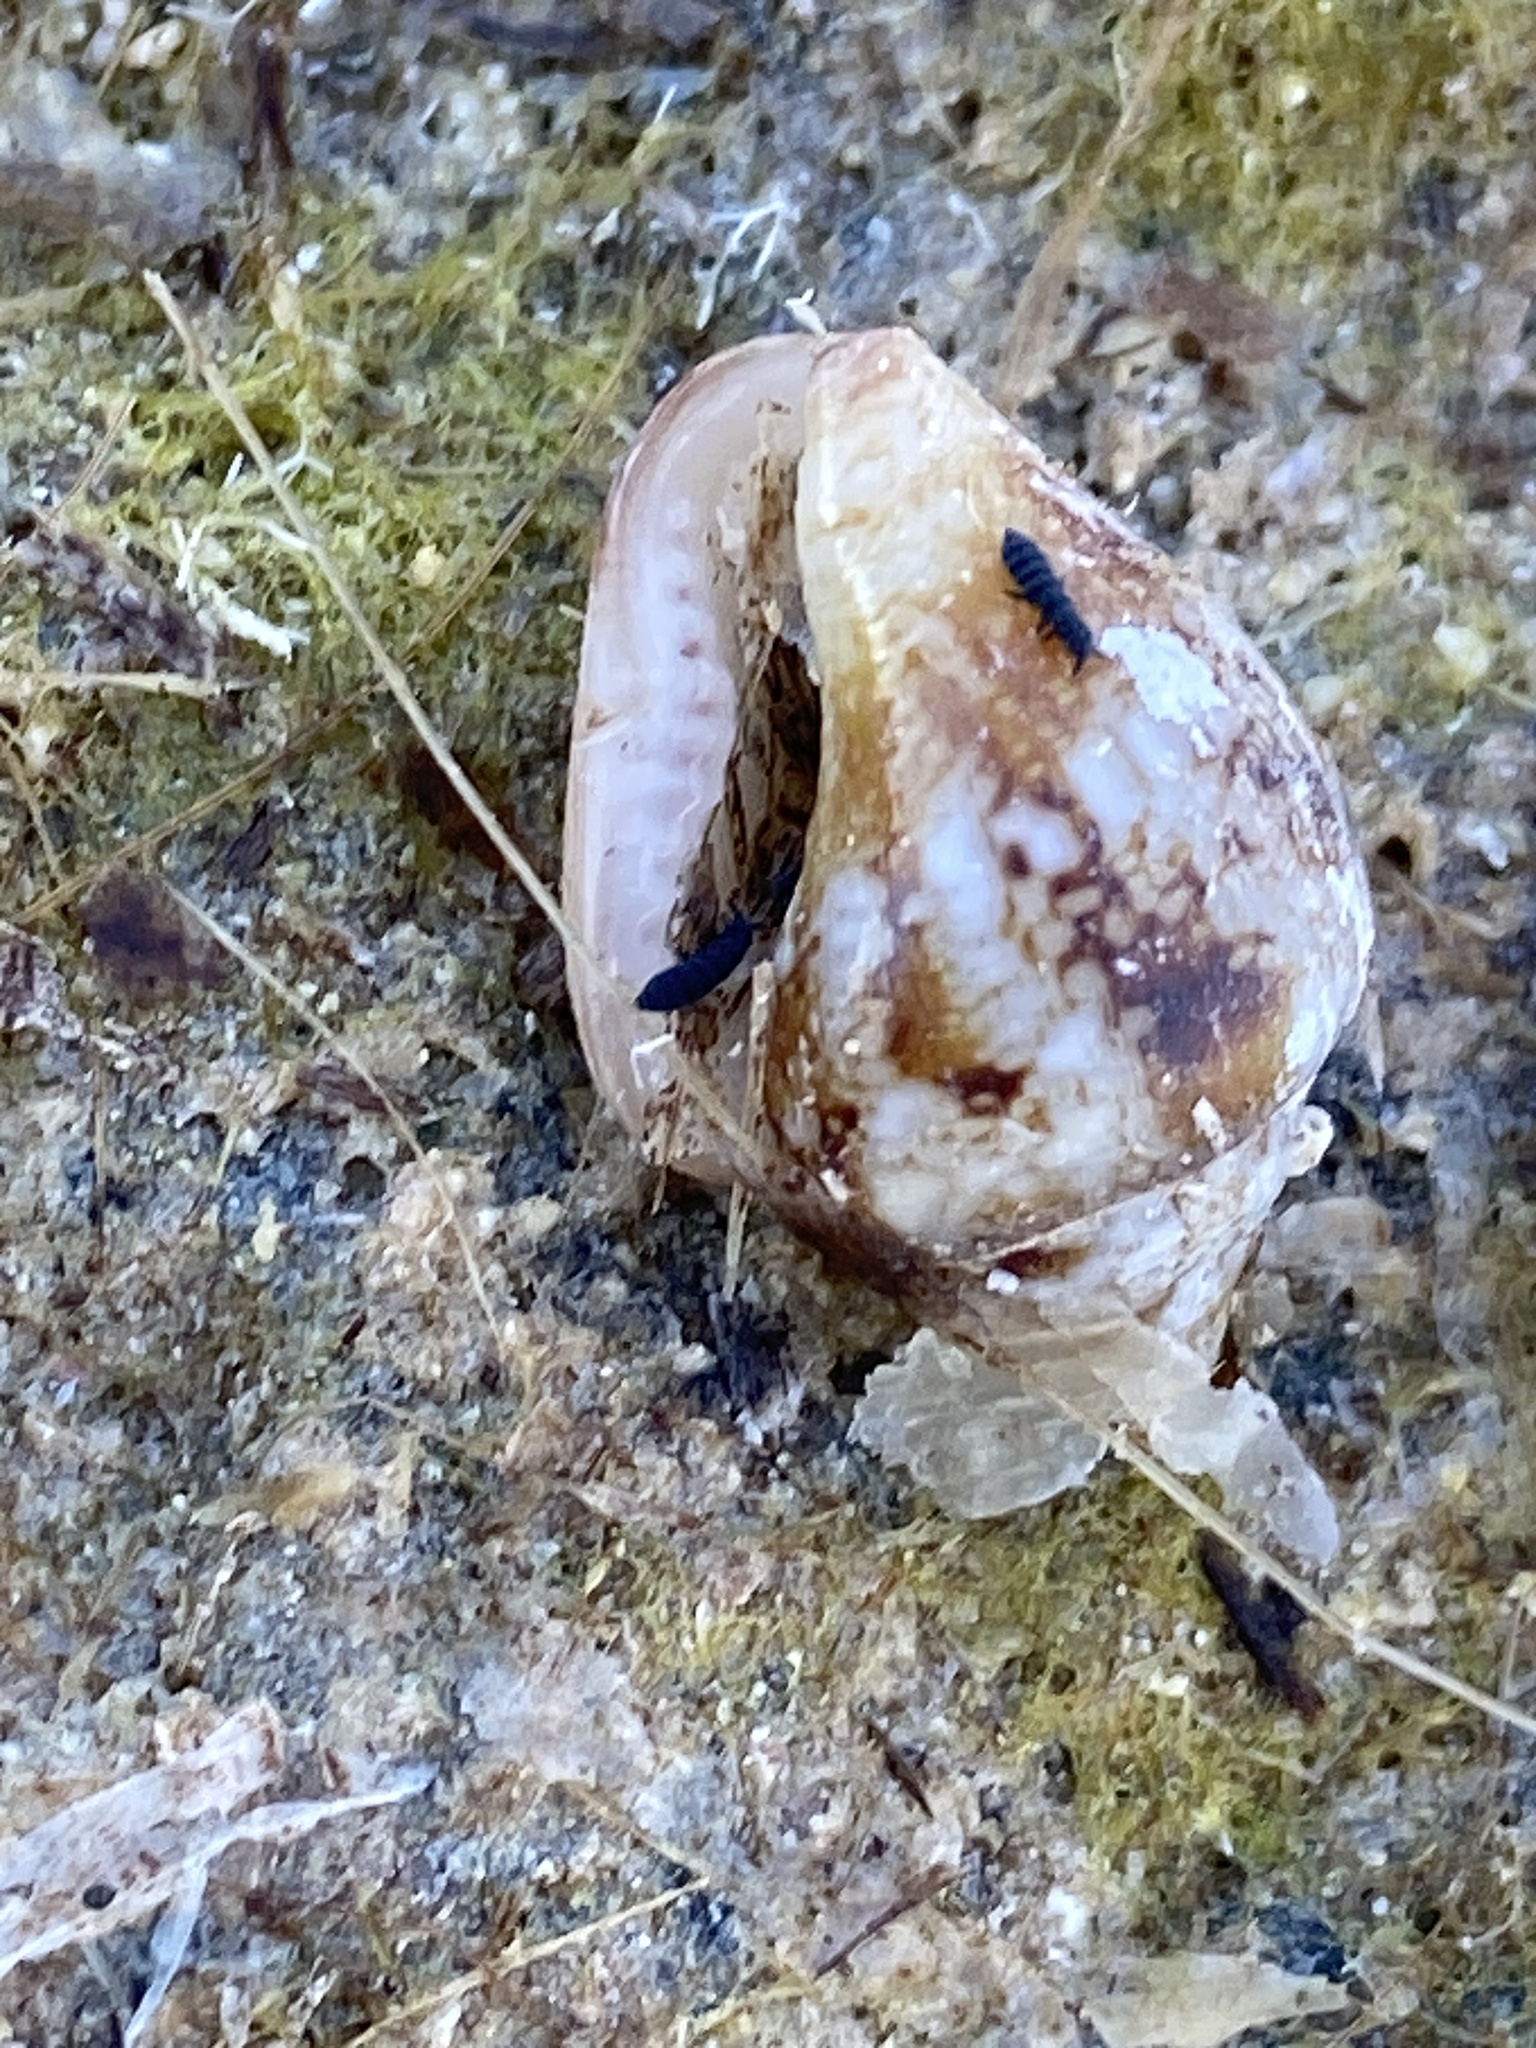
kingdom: Animalia
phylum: Mollusca
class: Gastropoda
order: Neogastropoda
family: Columbellidae
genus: Columbella
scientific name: Columbella rustica
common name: Rustic dove shell
